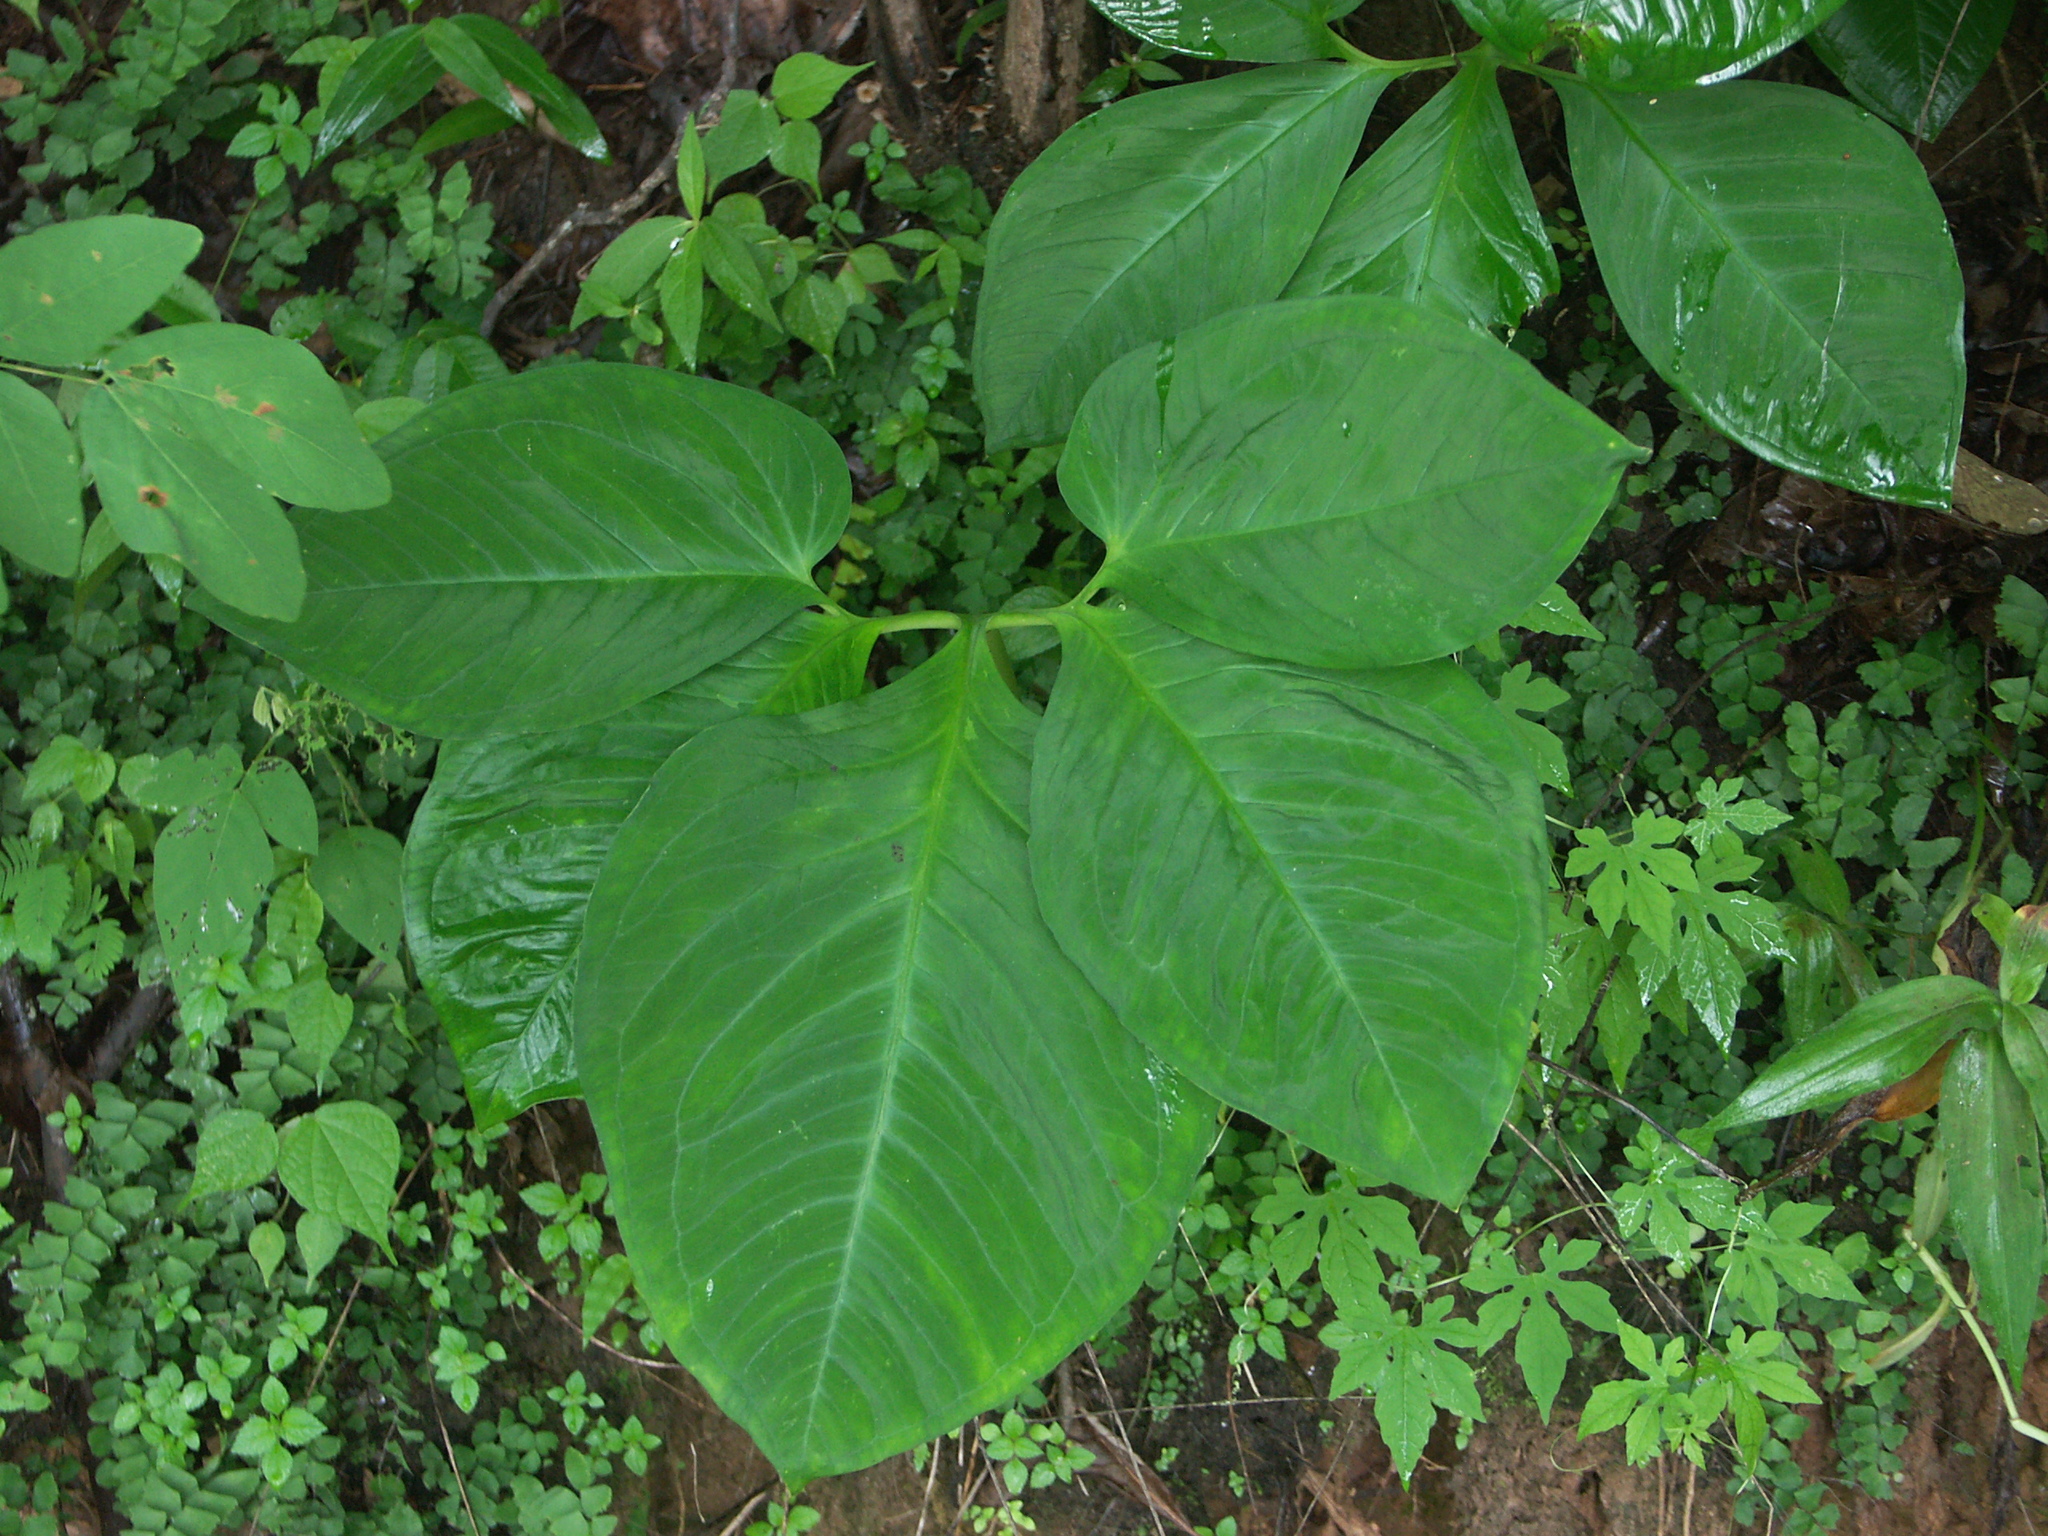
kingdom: Plantae
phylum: Tracheophyta
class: Liliopsida
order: Alismatales
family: Araceae
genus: Xanthosoma
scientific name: Xanthosoma pentaphyllum
